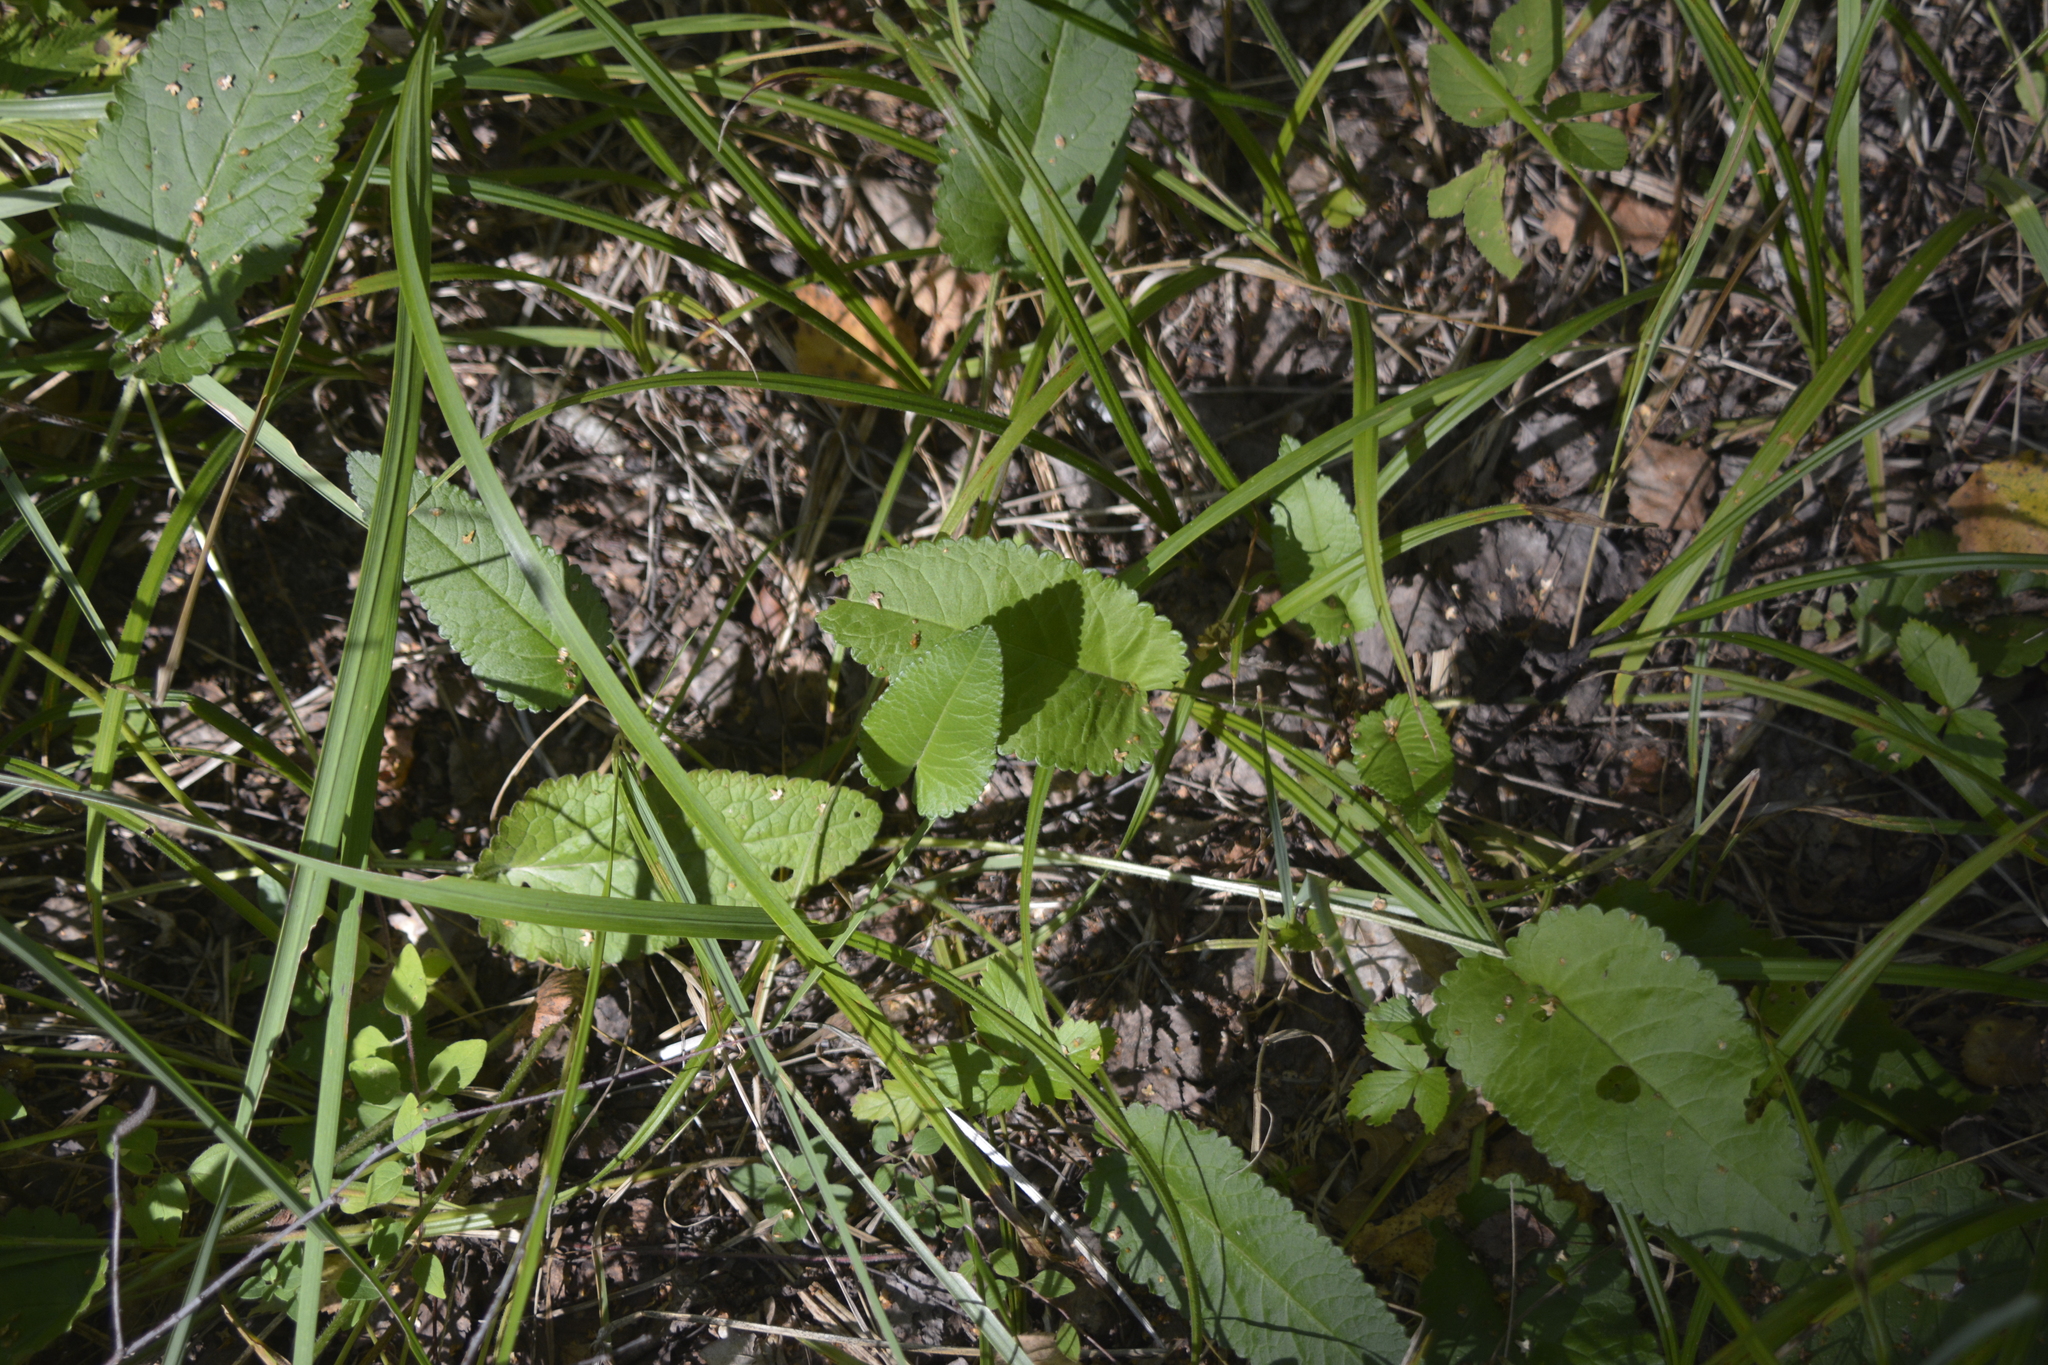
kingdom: Plantae
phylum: Tracheophyta
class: Magnoliopsida
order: Lamiales
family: Lamiaceae
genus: Betonica
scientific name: Betonica officinalis
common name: Bishop's-wort
